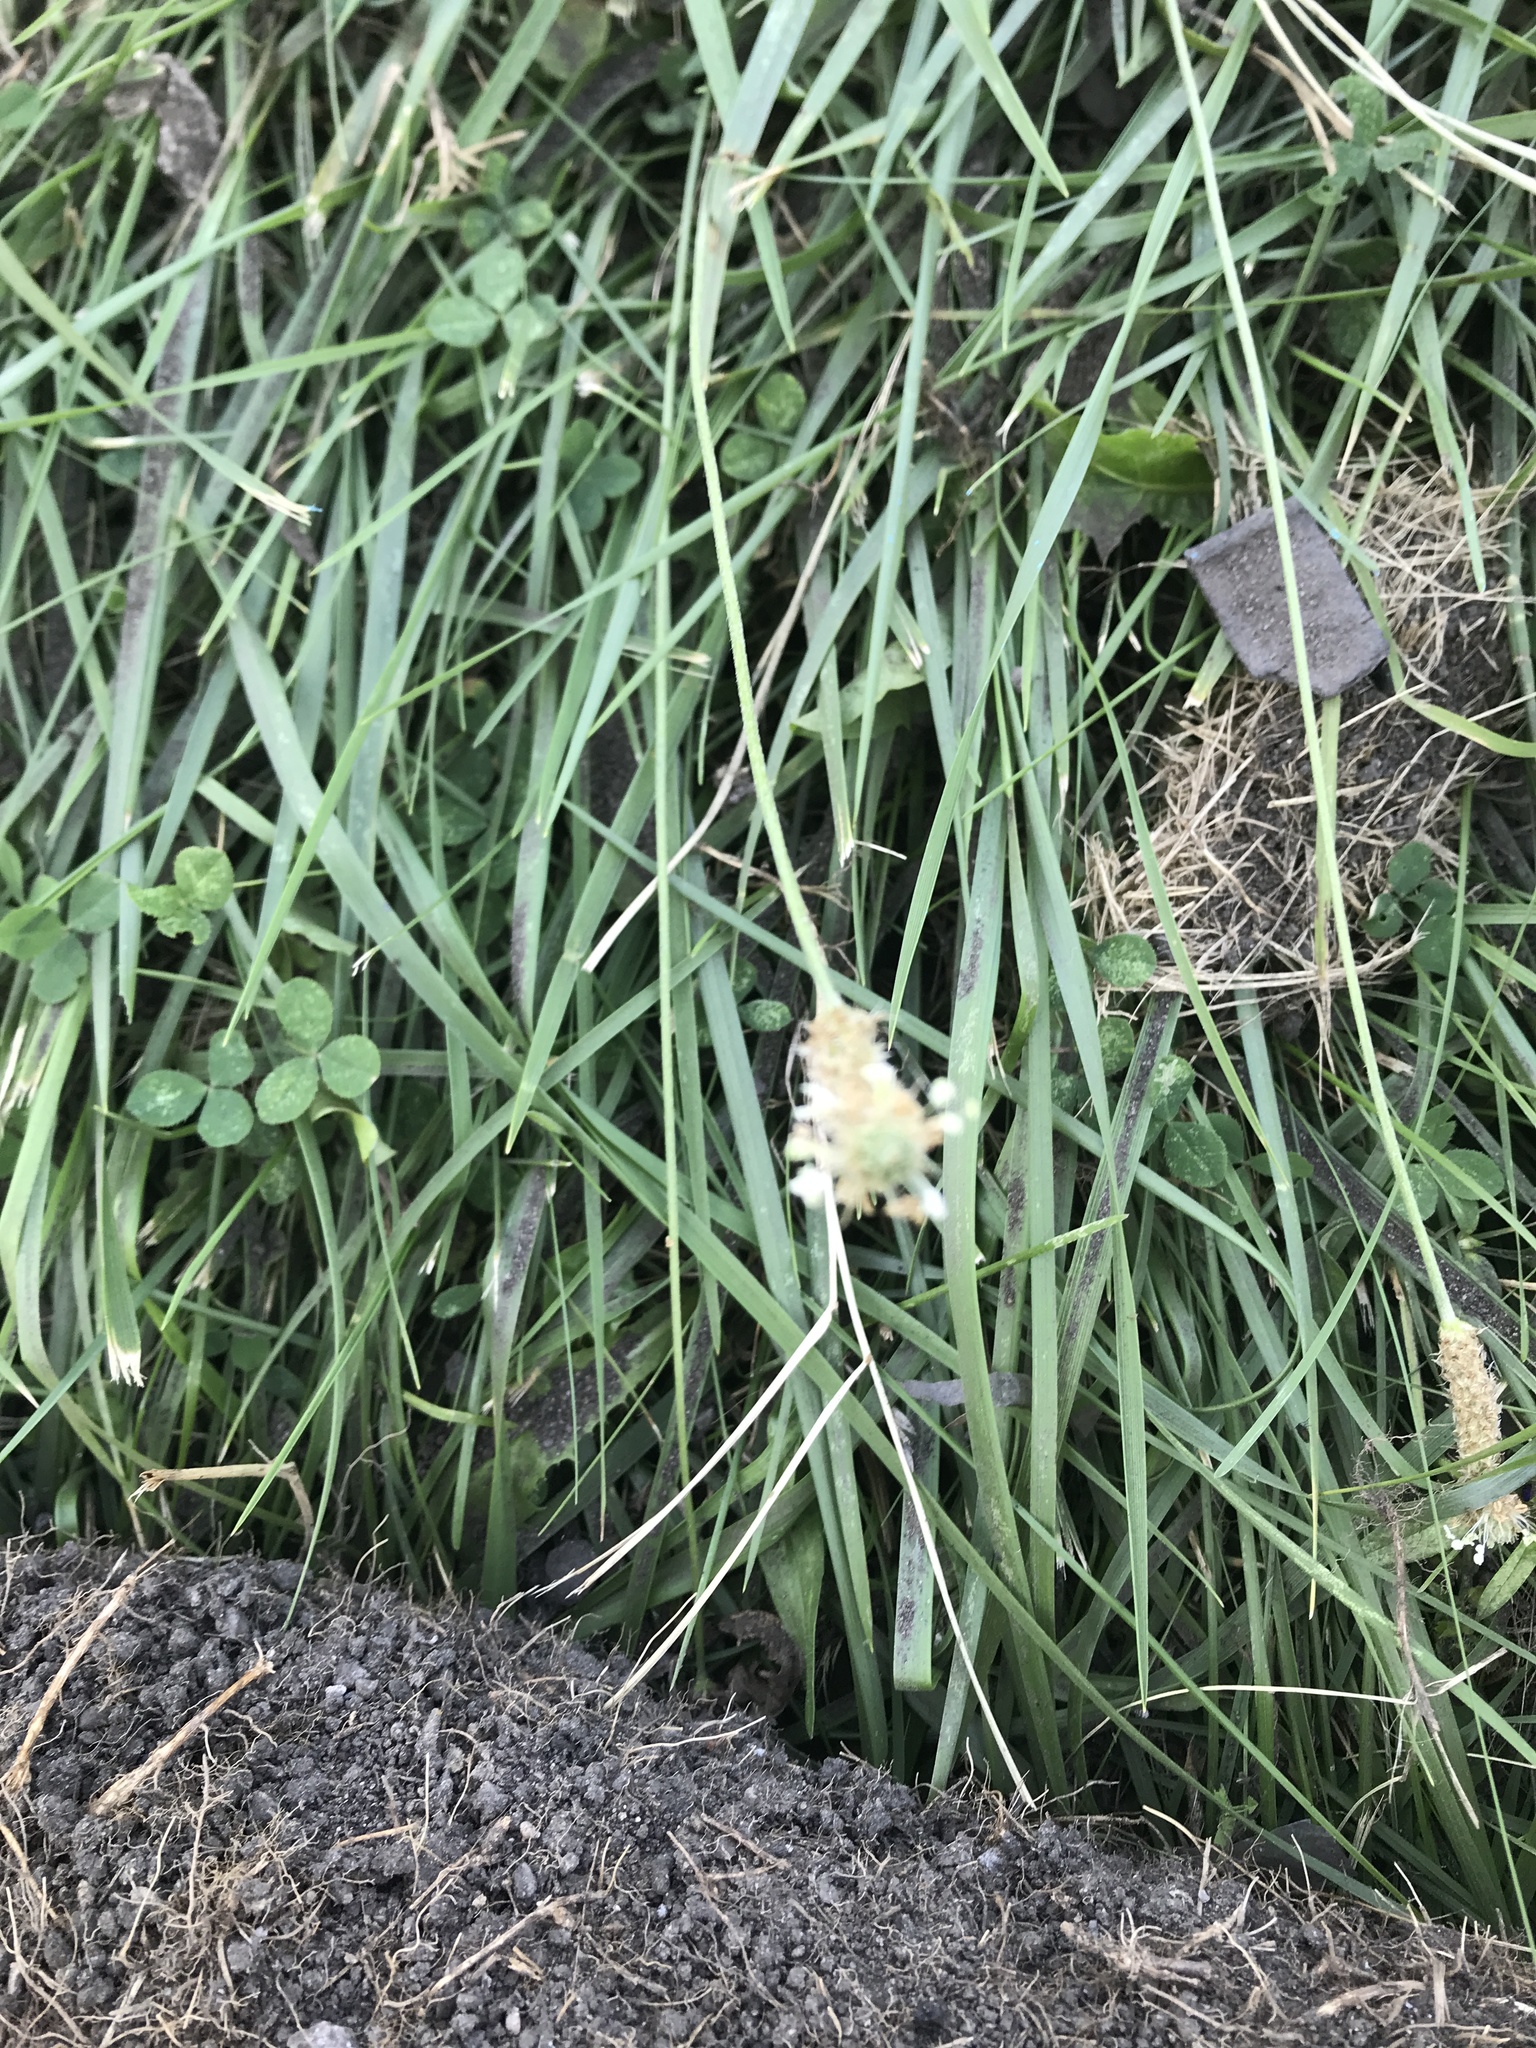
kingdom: Plantae
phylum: Tracheophyta
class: Magnoliopsida
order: Lamiales
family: Plantaginaceae
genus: Plantago
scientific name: Plantago lanceolata
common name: Ribwort plantain
